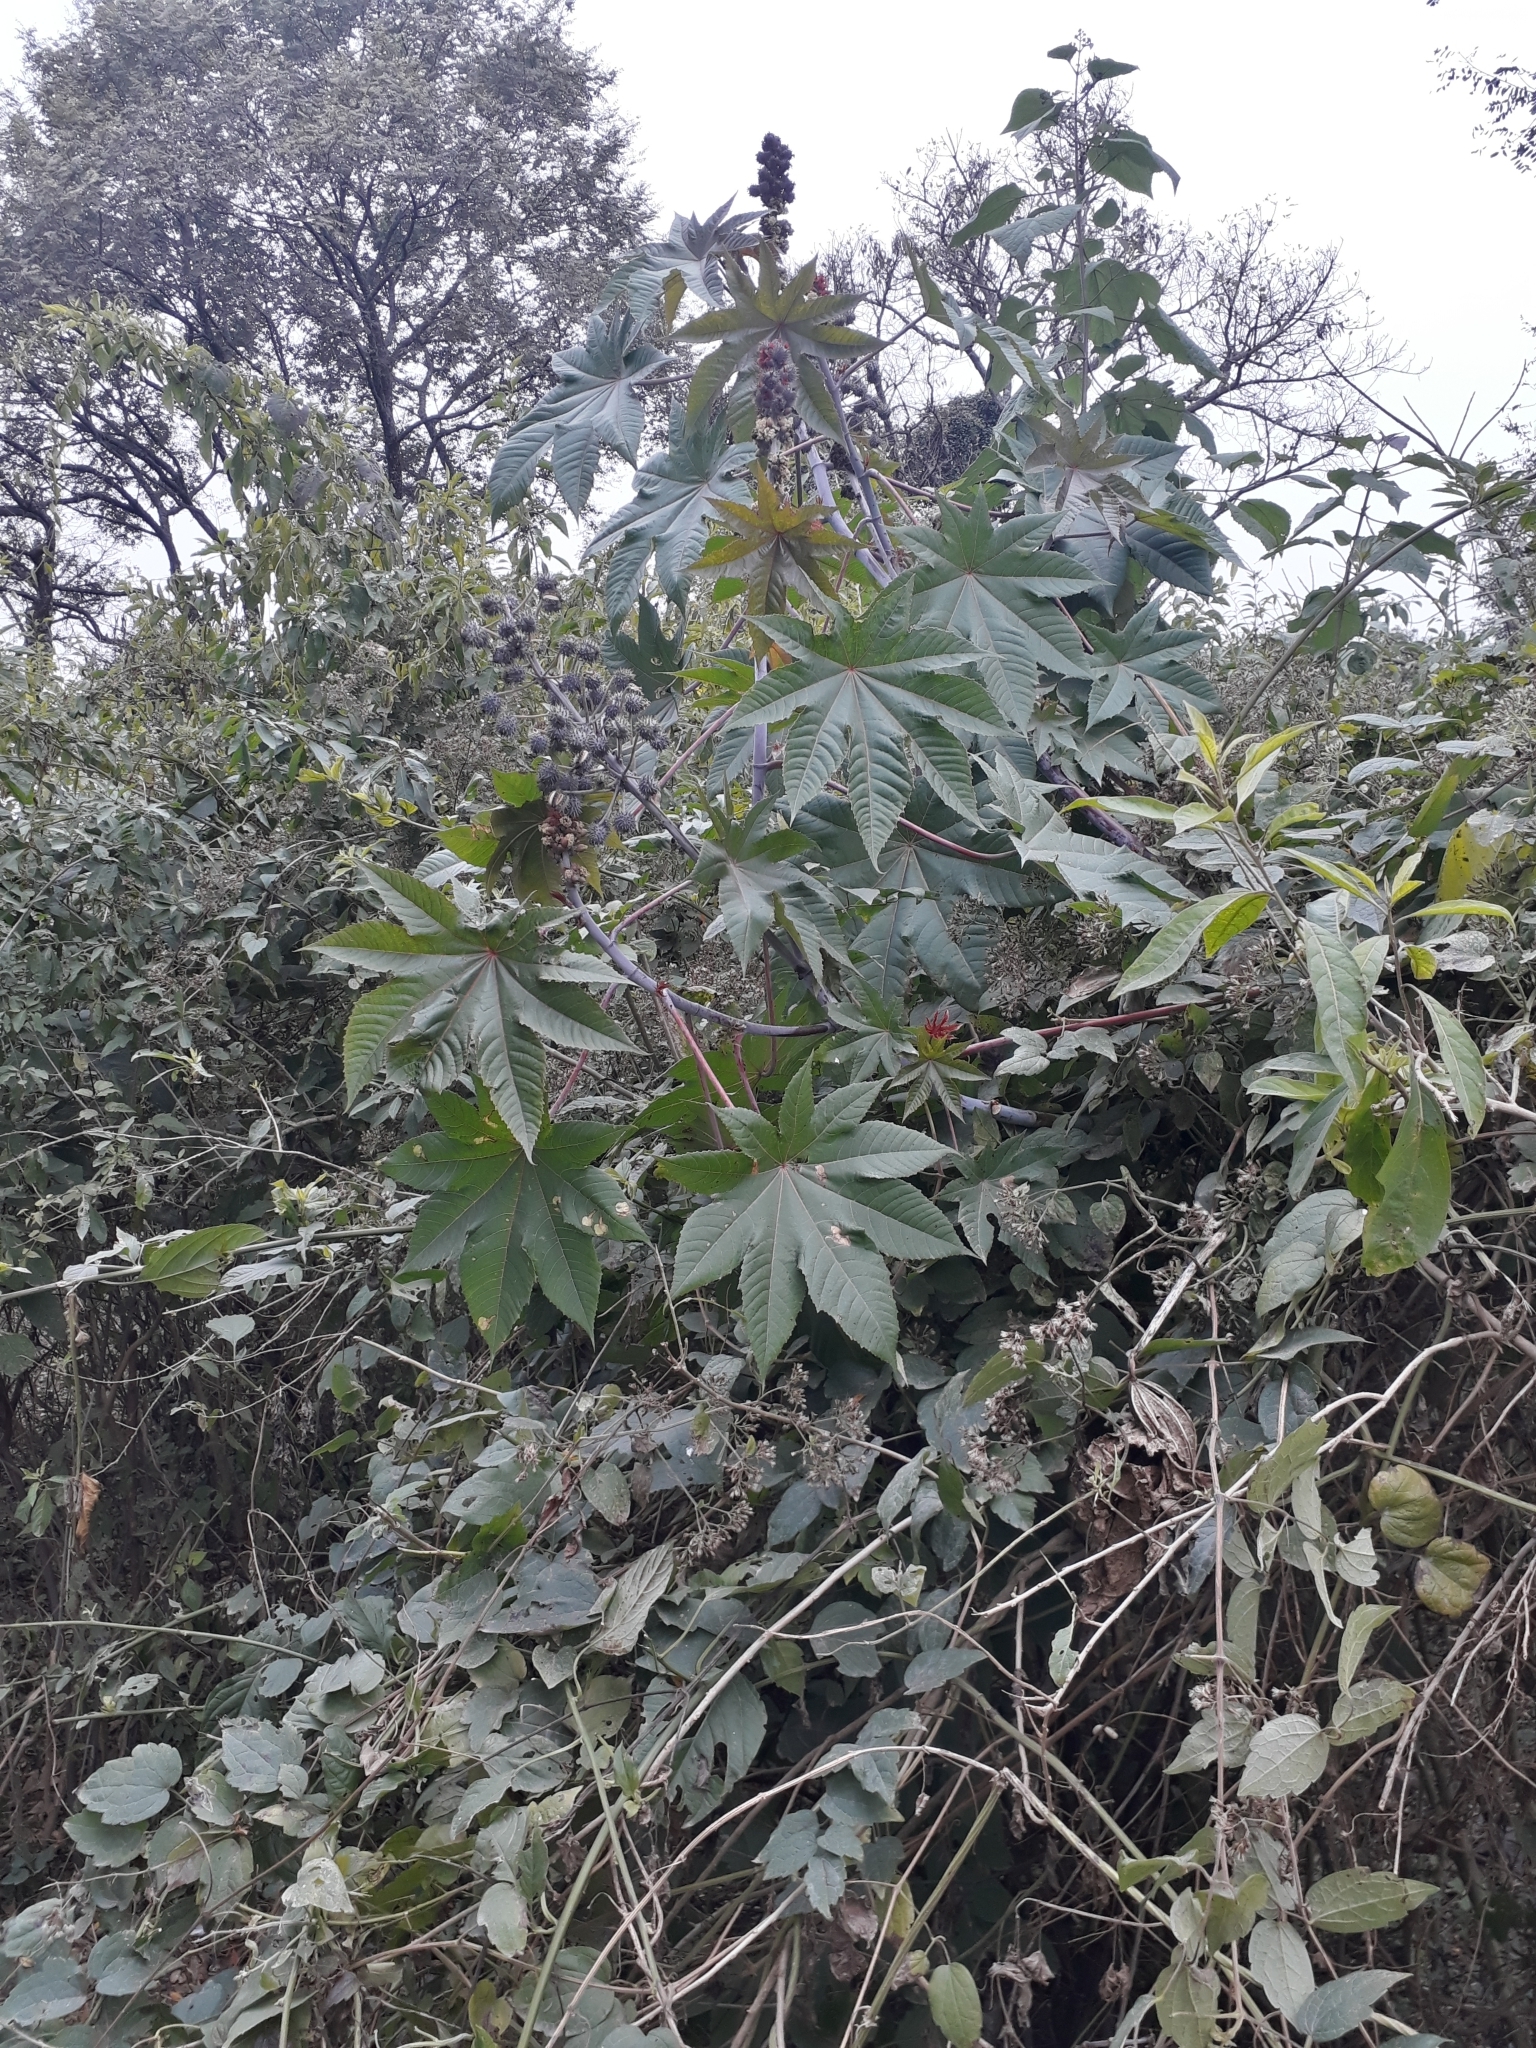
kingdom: Plantae
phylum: Tracheophyta
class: Magnoliopsida
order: Malpighiales
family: Euphorbiaceae
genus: Ricinus
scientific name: Ricinus communis
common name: Castor-oil-plant
